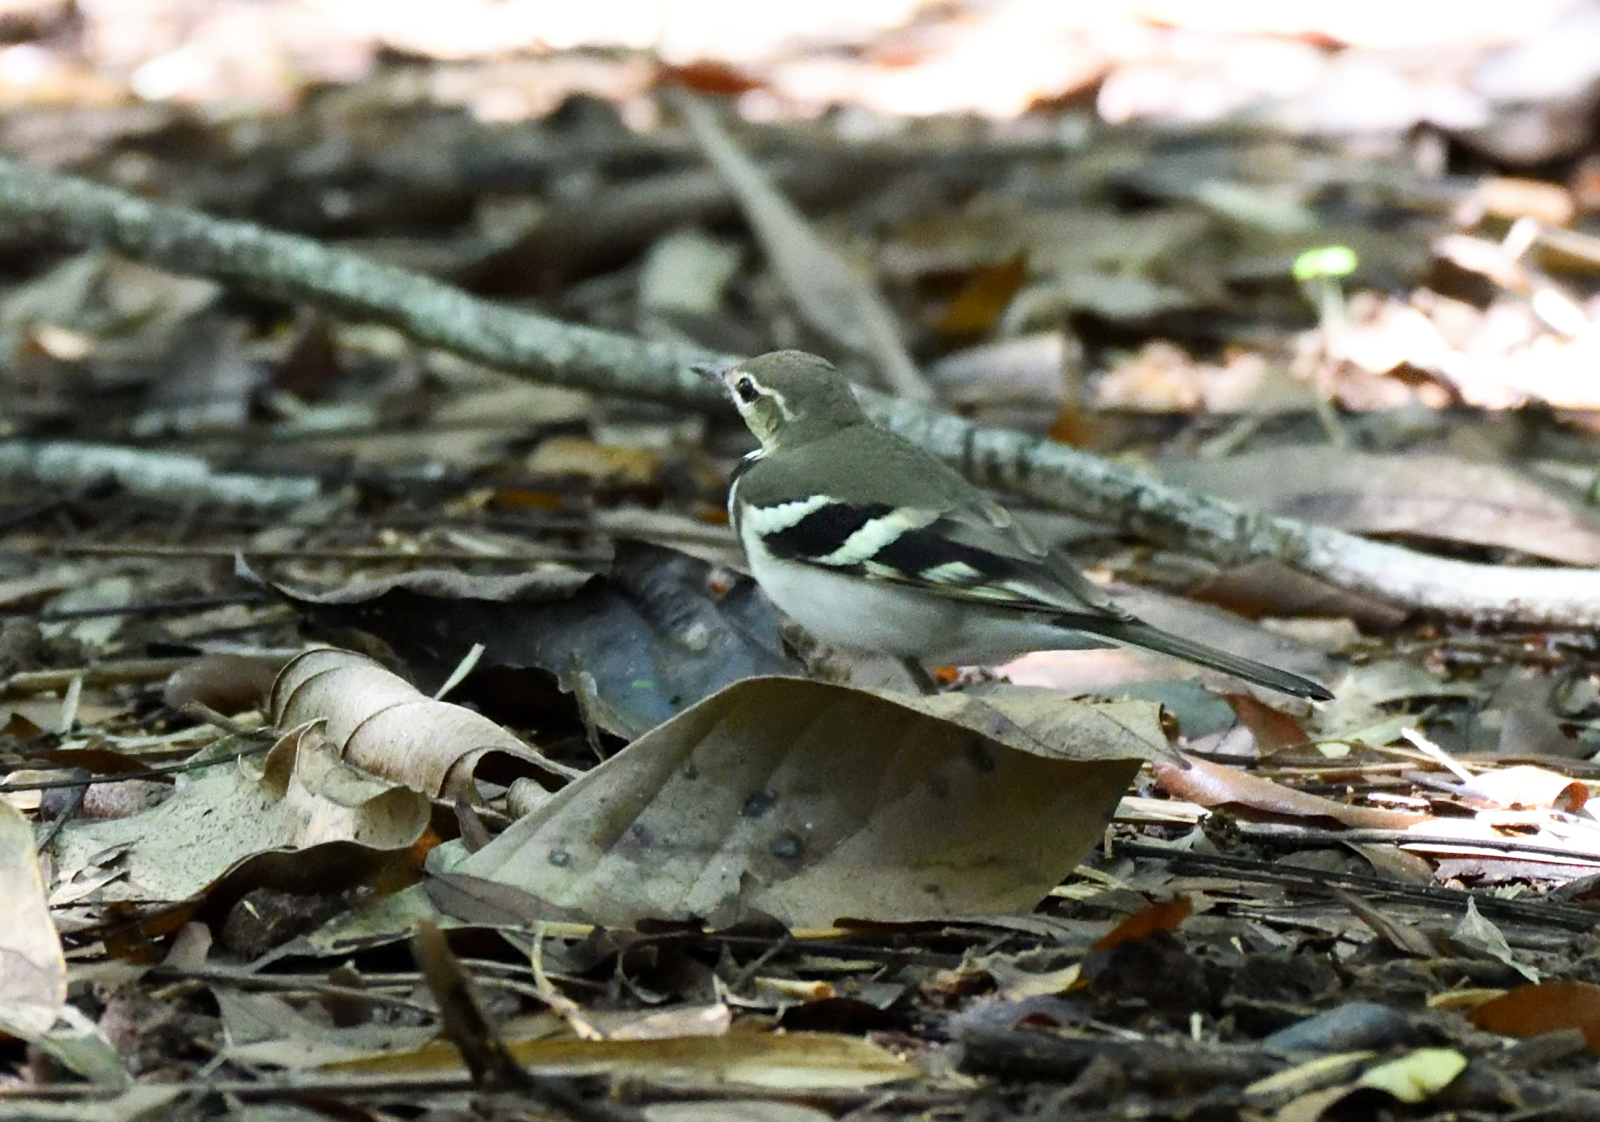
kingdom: Animalia
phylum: Chordata
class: Aves
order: Passeriformes
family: Motacillidae
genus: Dendronanthus
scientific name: Dendronanthus indicus
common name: Forest wagtail
